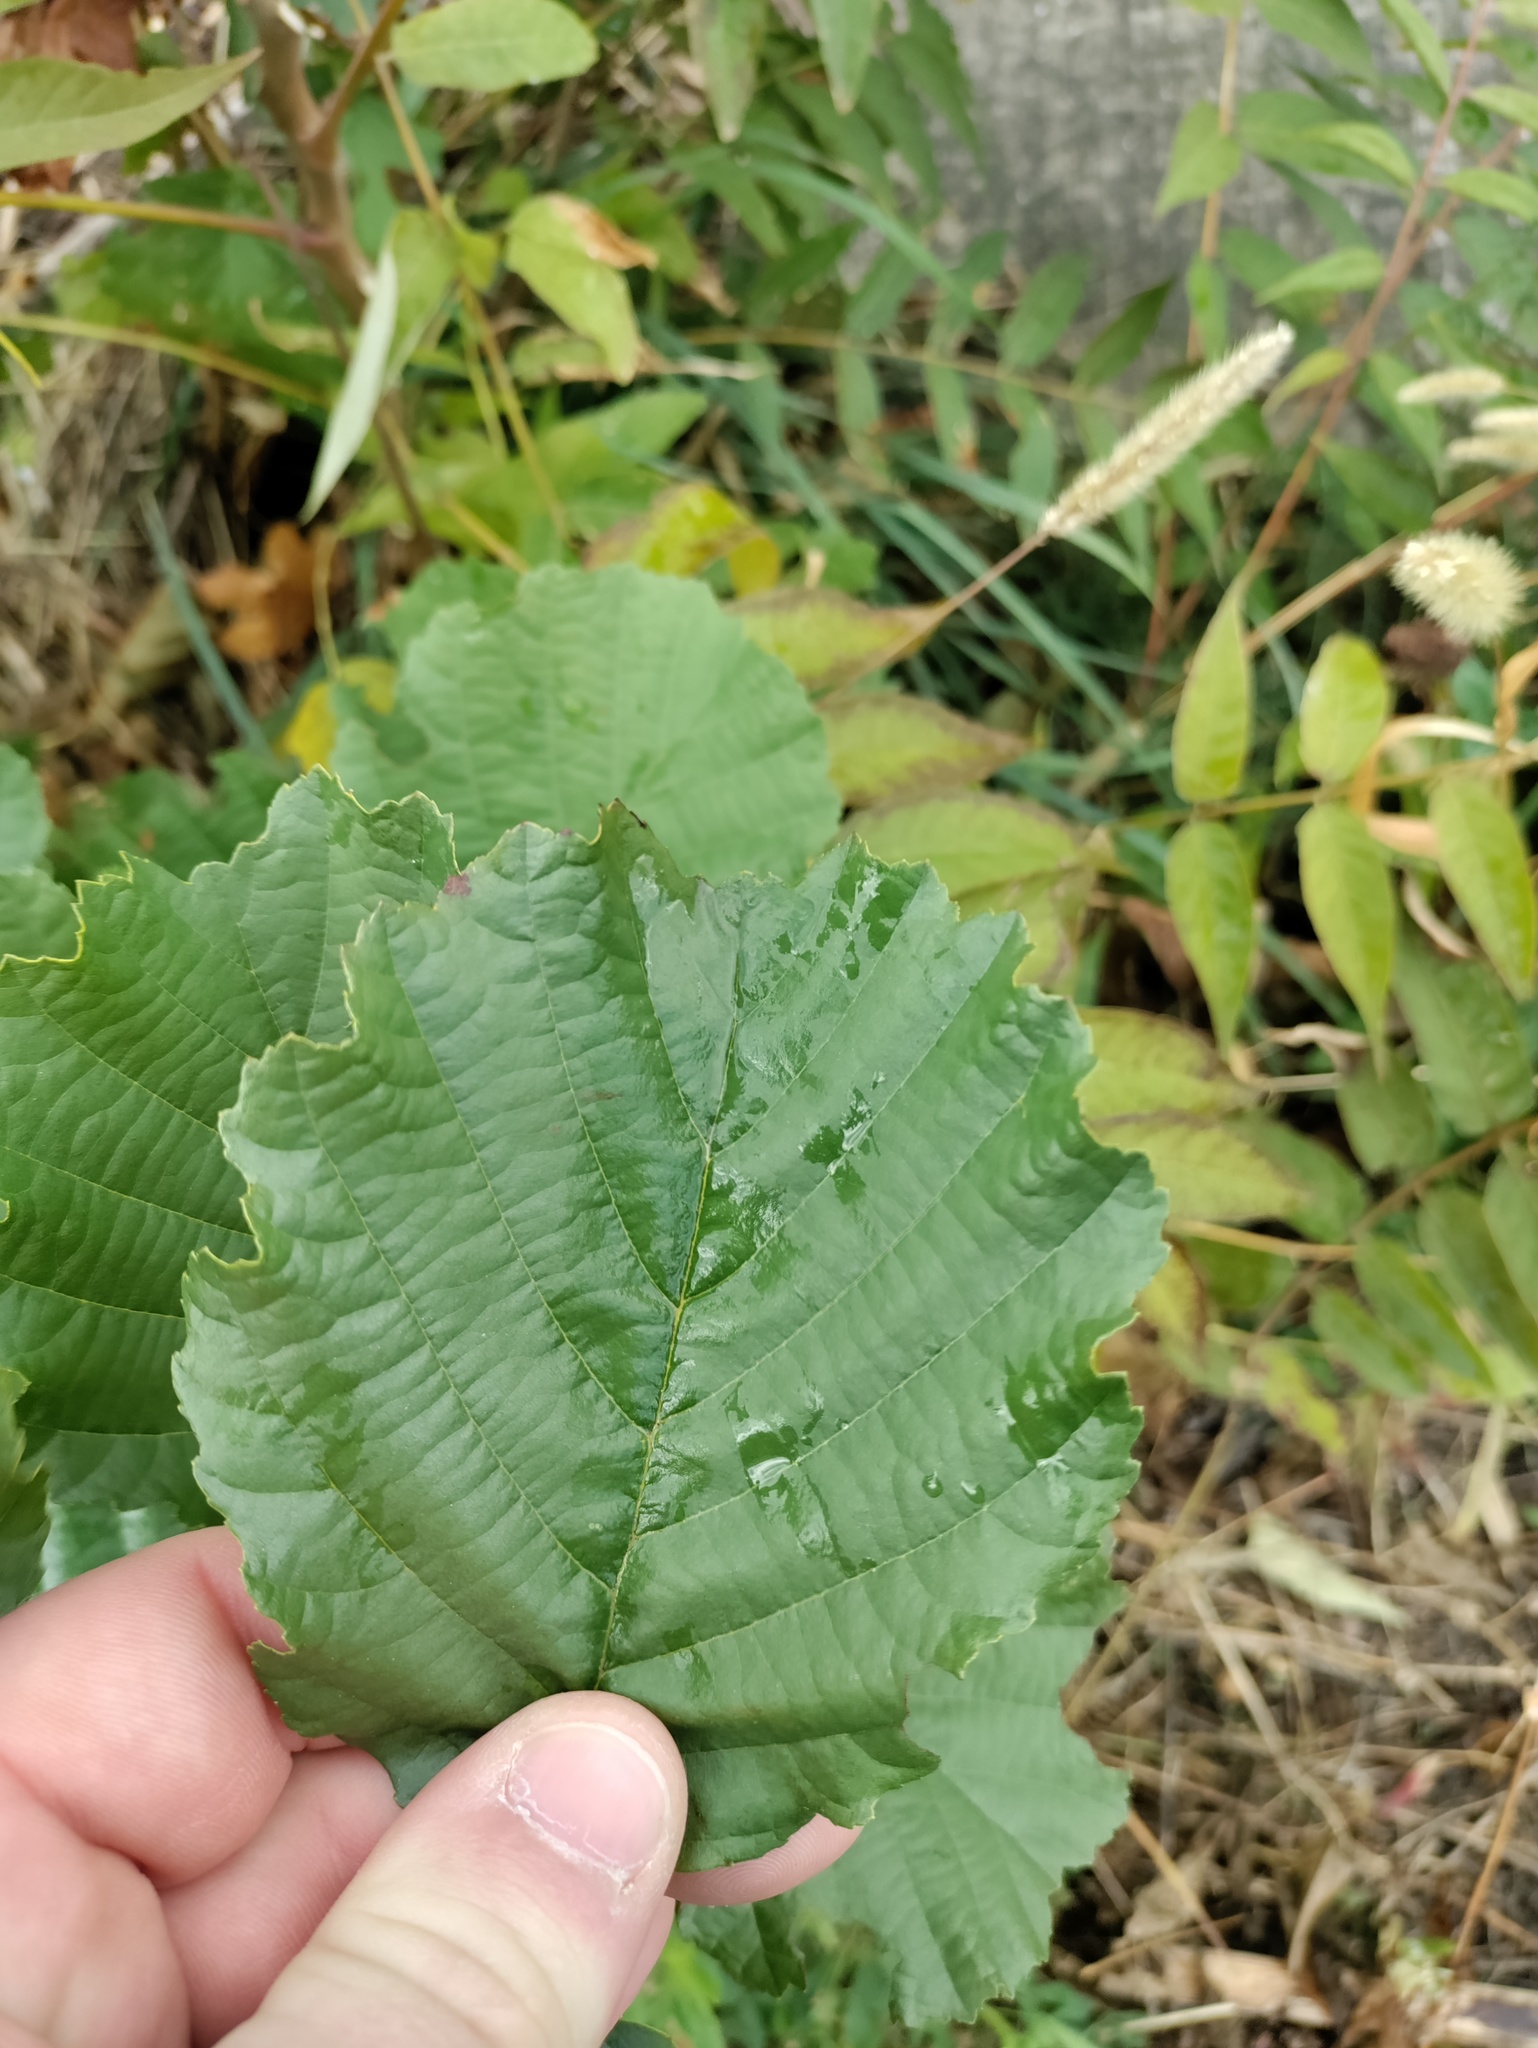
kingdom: Plantae
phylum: Tracheophyta
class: Magnoliopsida
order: Fagales
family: Betulaceae
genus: Alnus
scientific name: Alnus glutinosa
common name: Black alder
